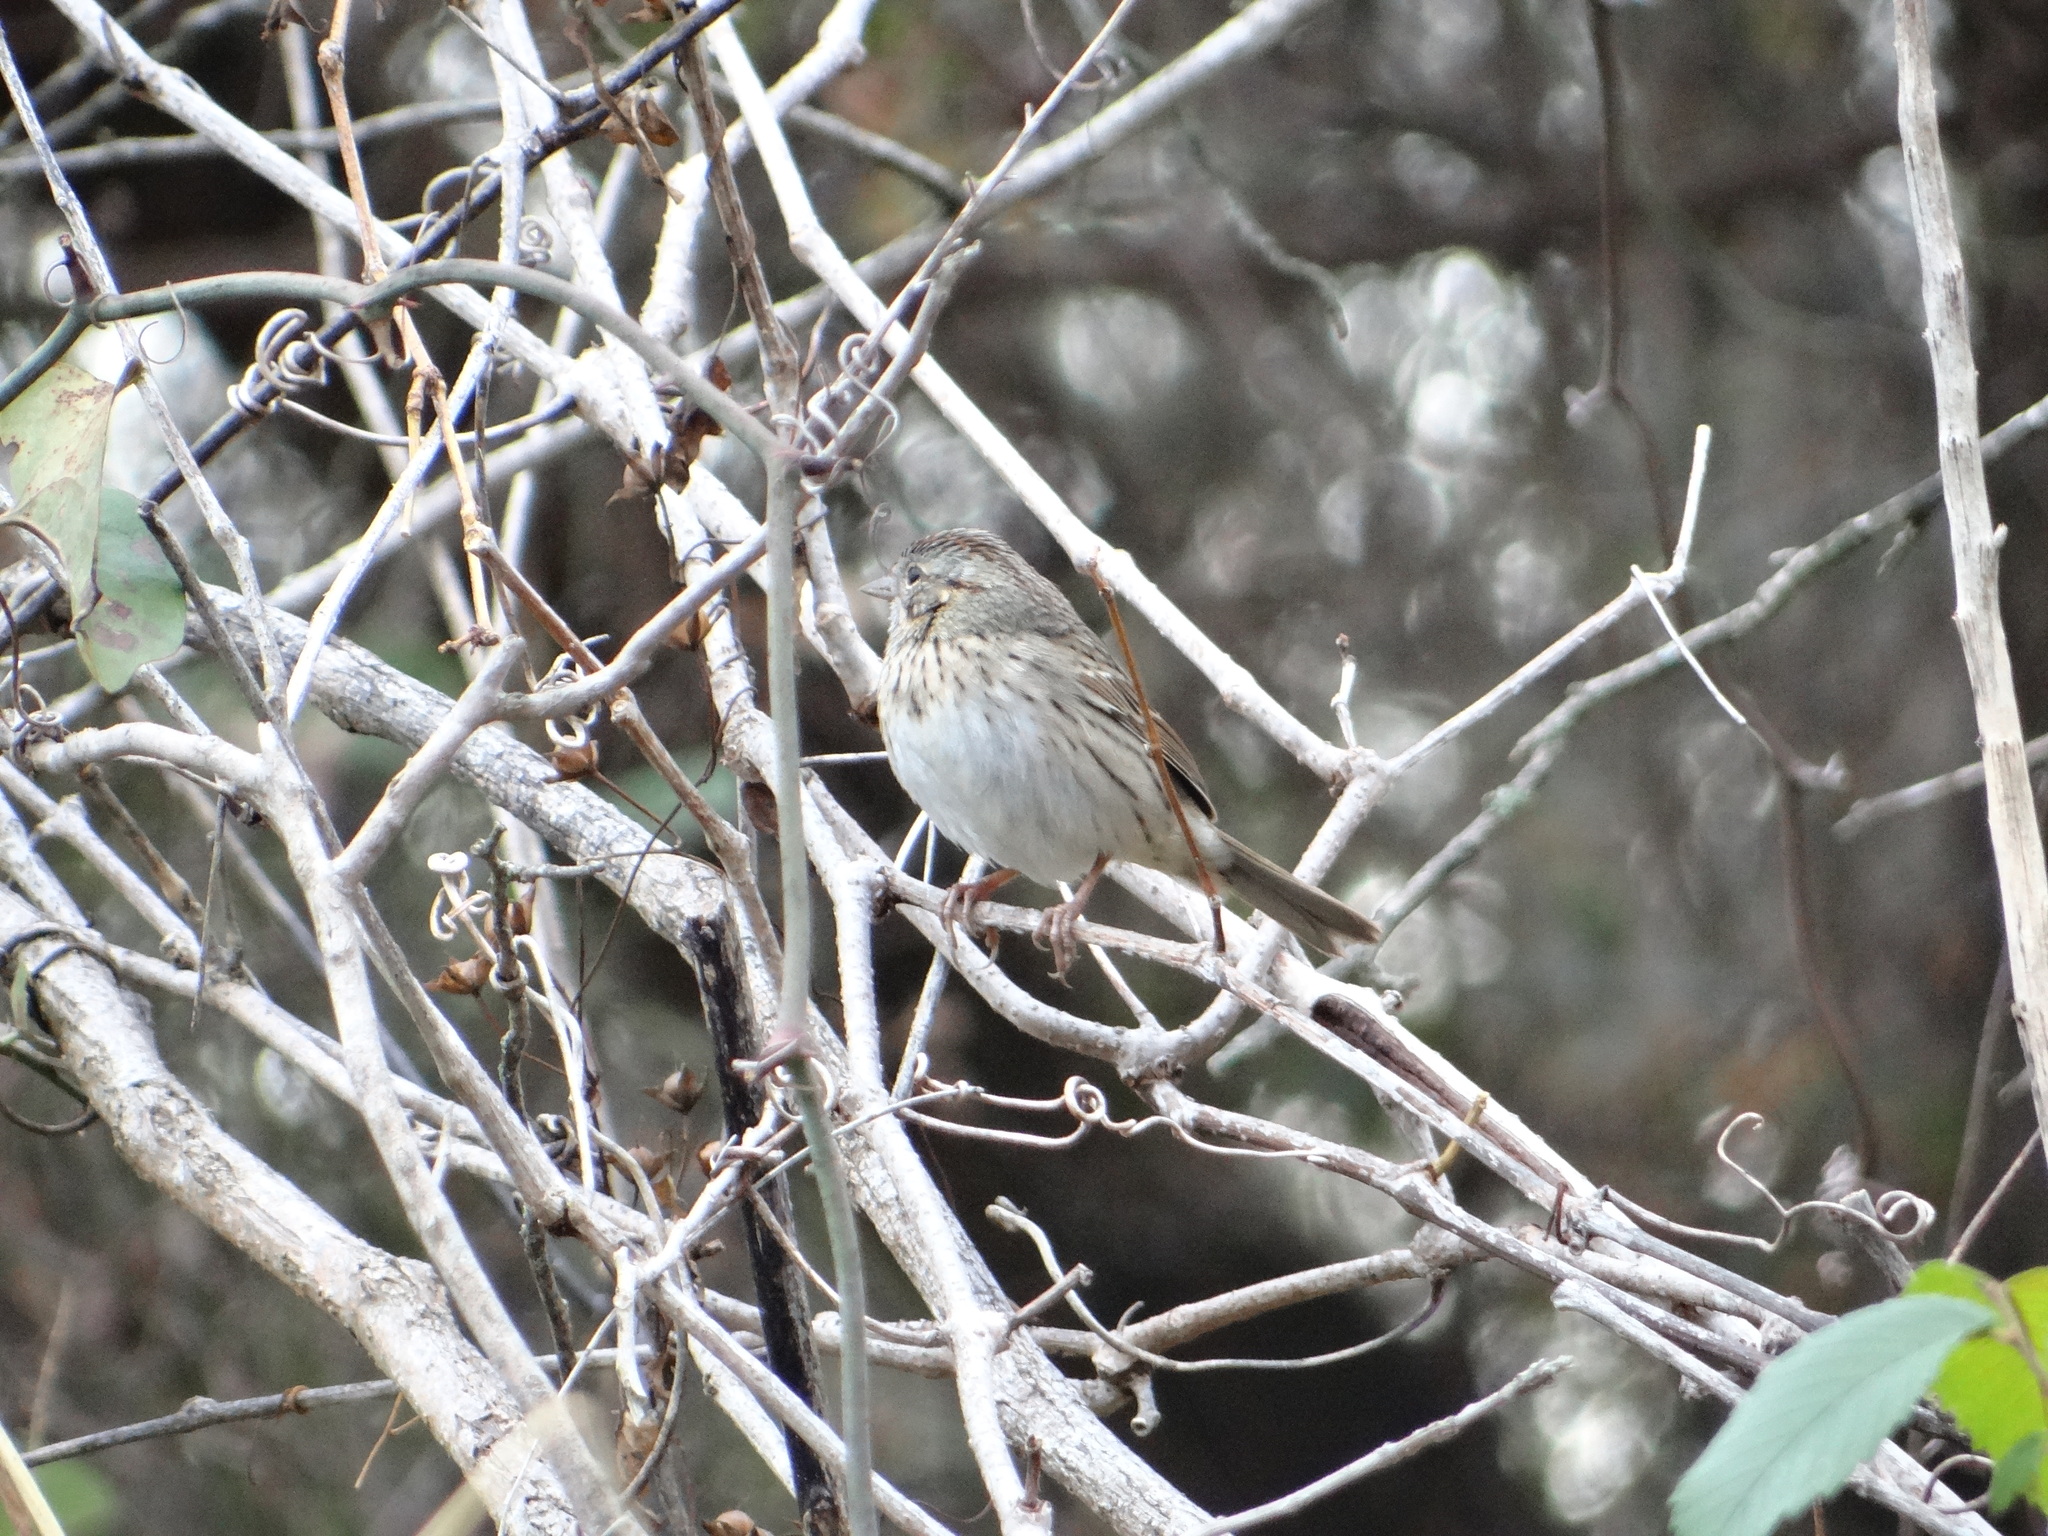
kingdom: Animalia
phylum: Chordata
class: Aves
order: Passeriformes
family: Passerellidae
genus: Melospiza
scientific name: Melospiza lincolnii
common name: Lincoln's sparrow
